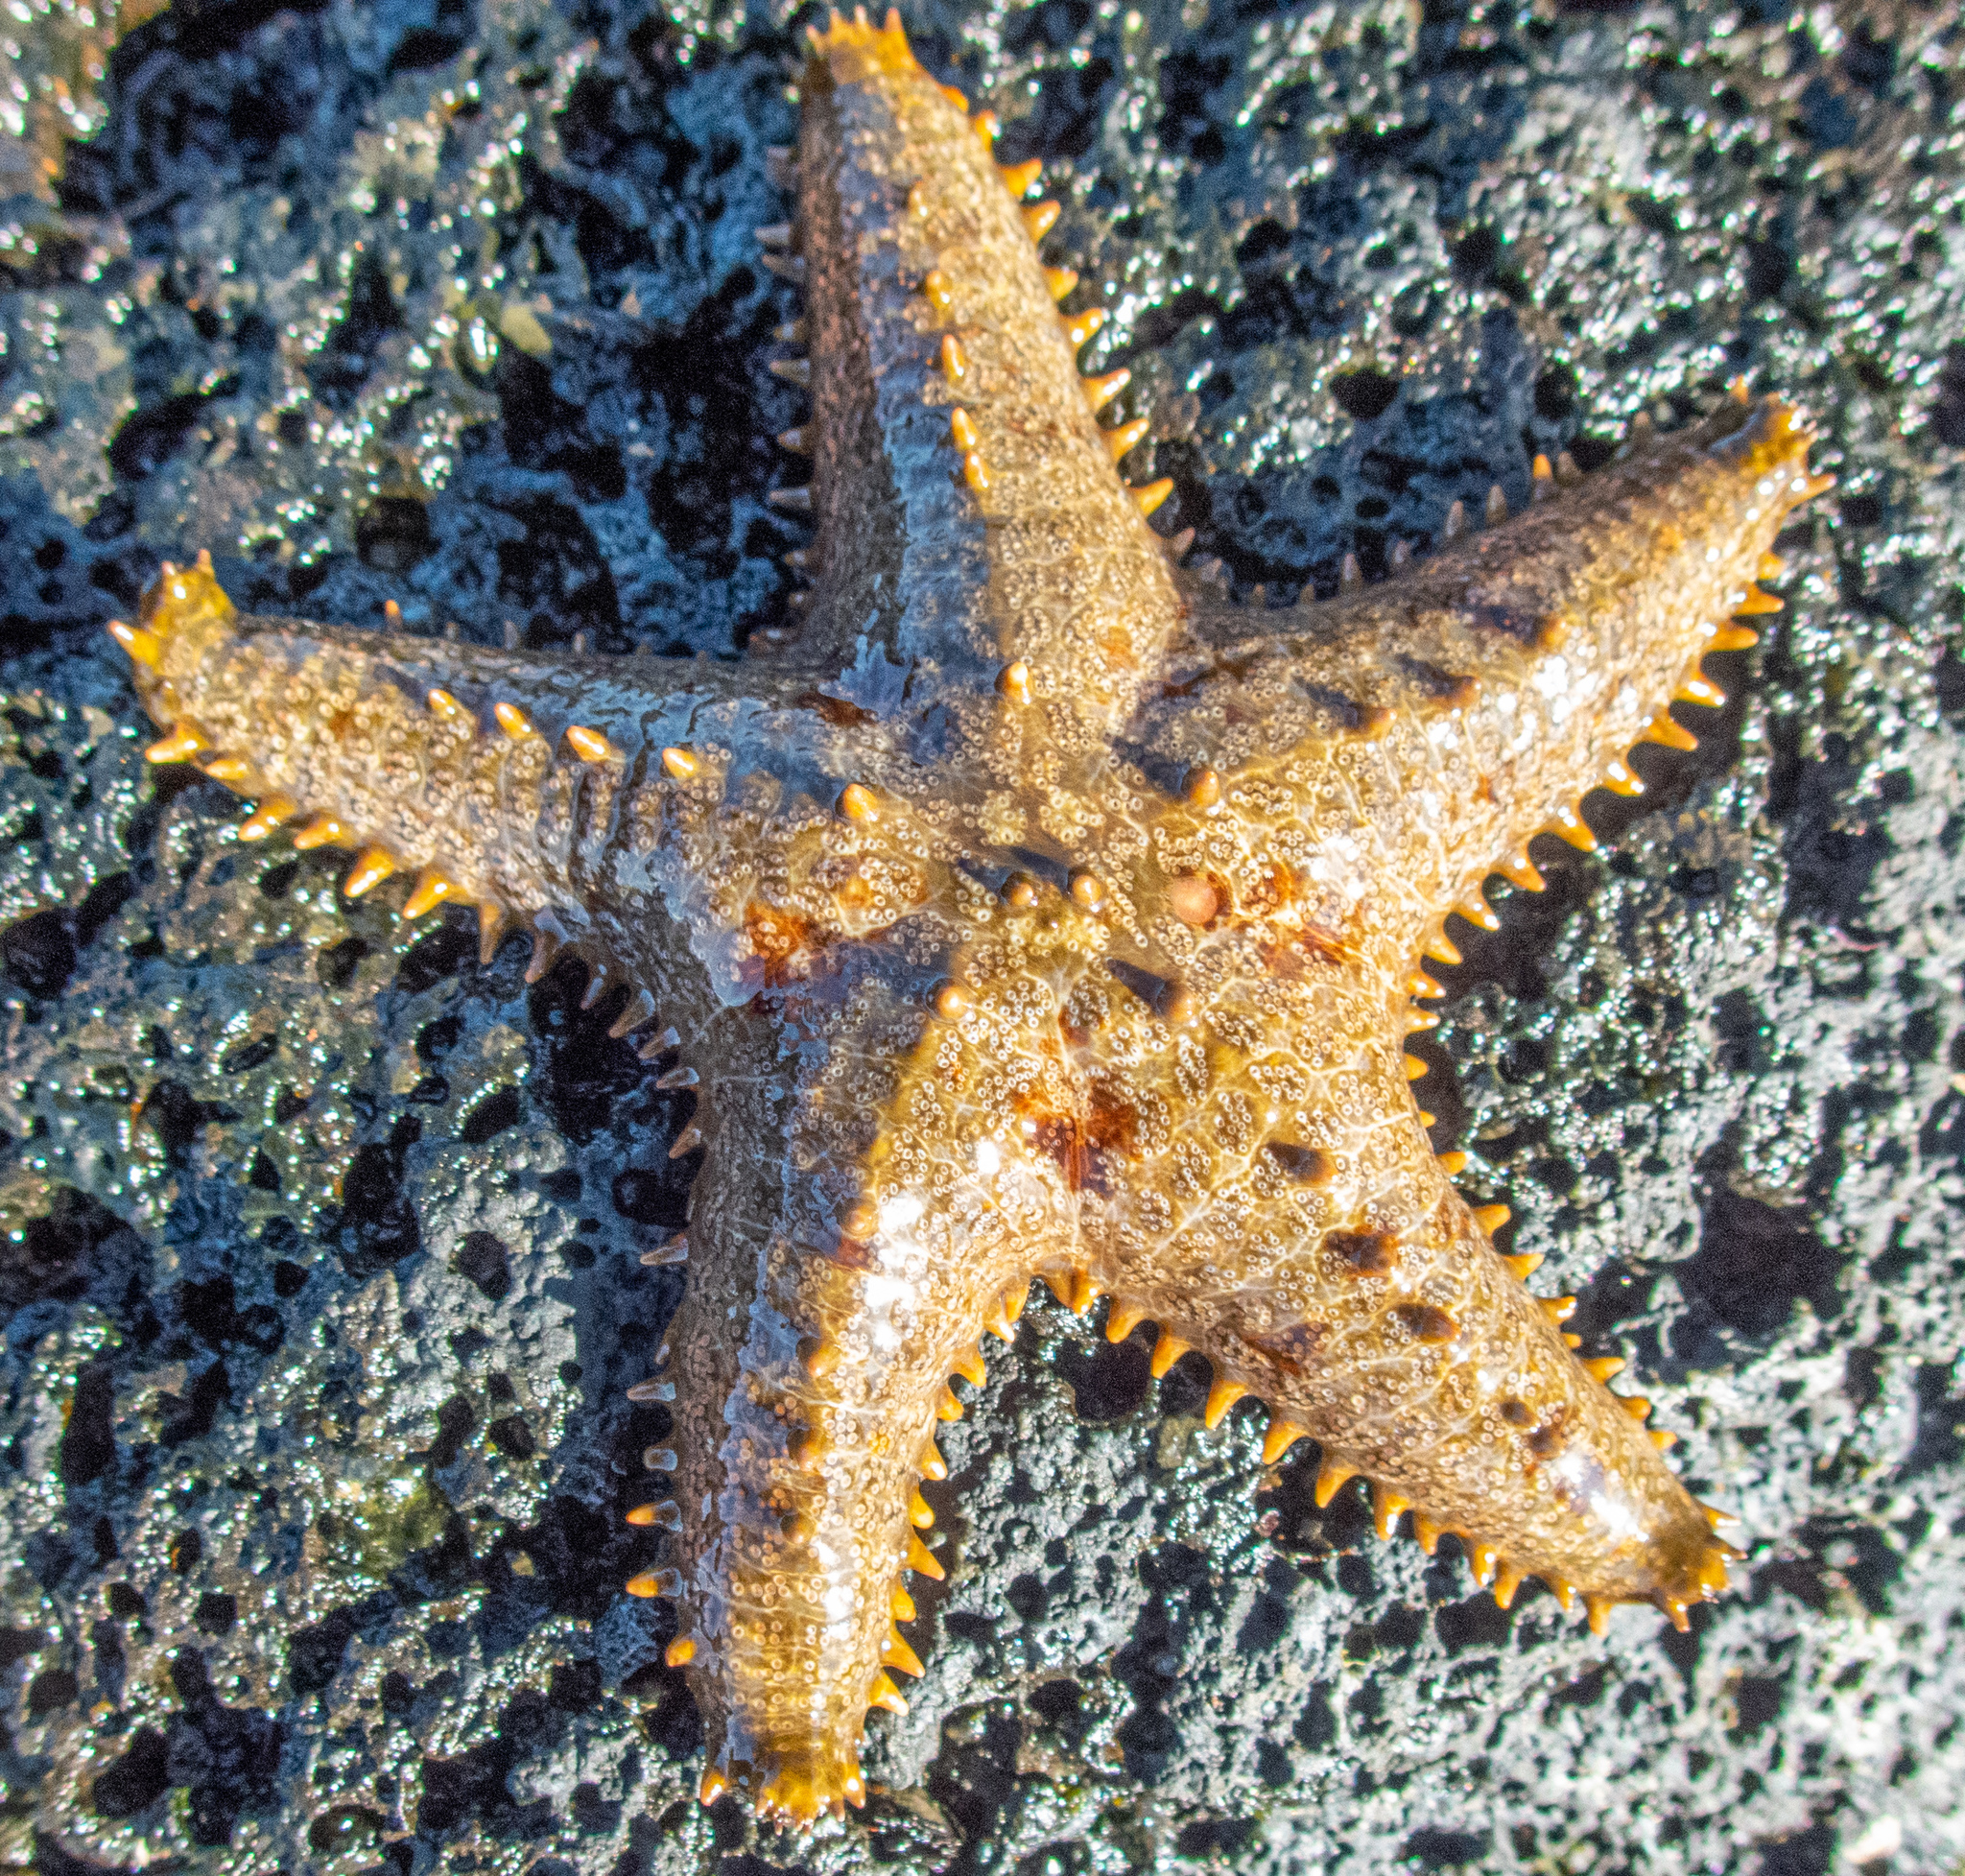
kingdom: Animalia
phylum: Echinodermata
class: Asteroidea
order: Valvatida
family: Asteropseidae
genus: Asteropsis
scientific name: Asteropsis carinifera
